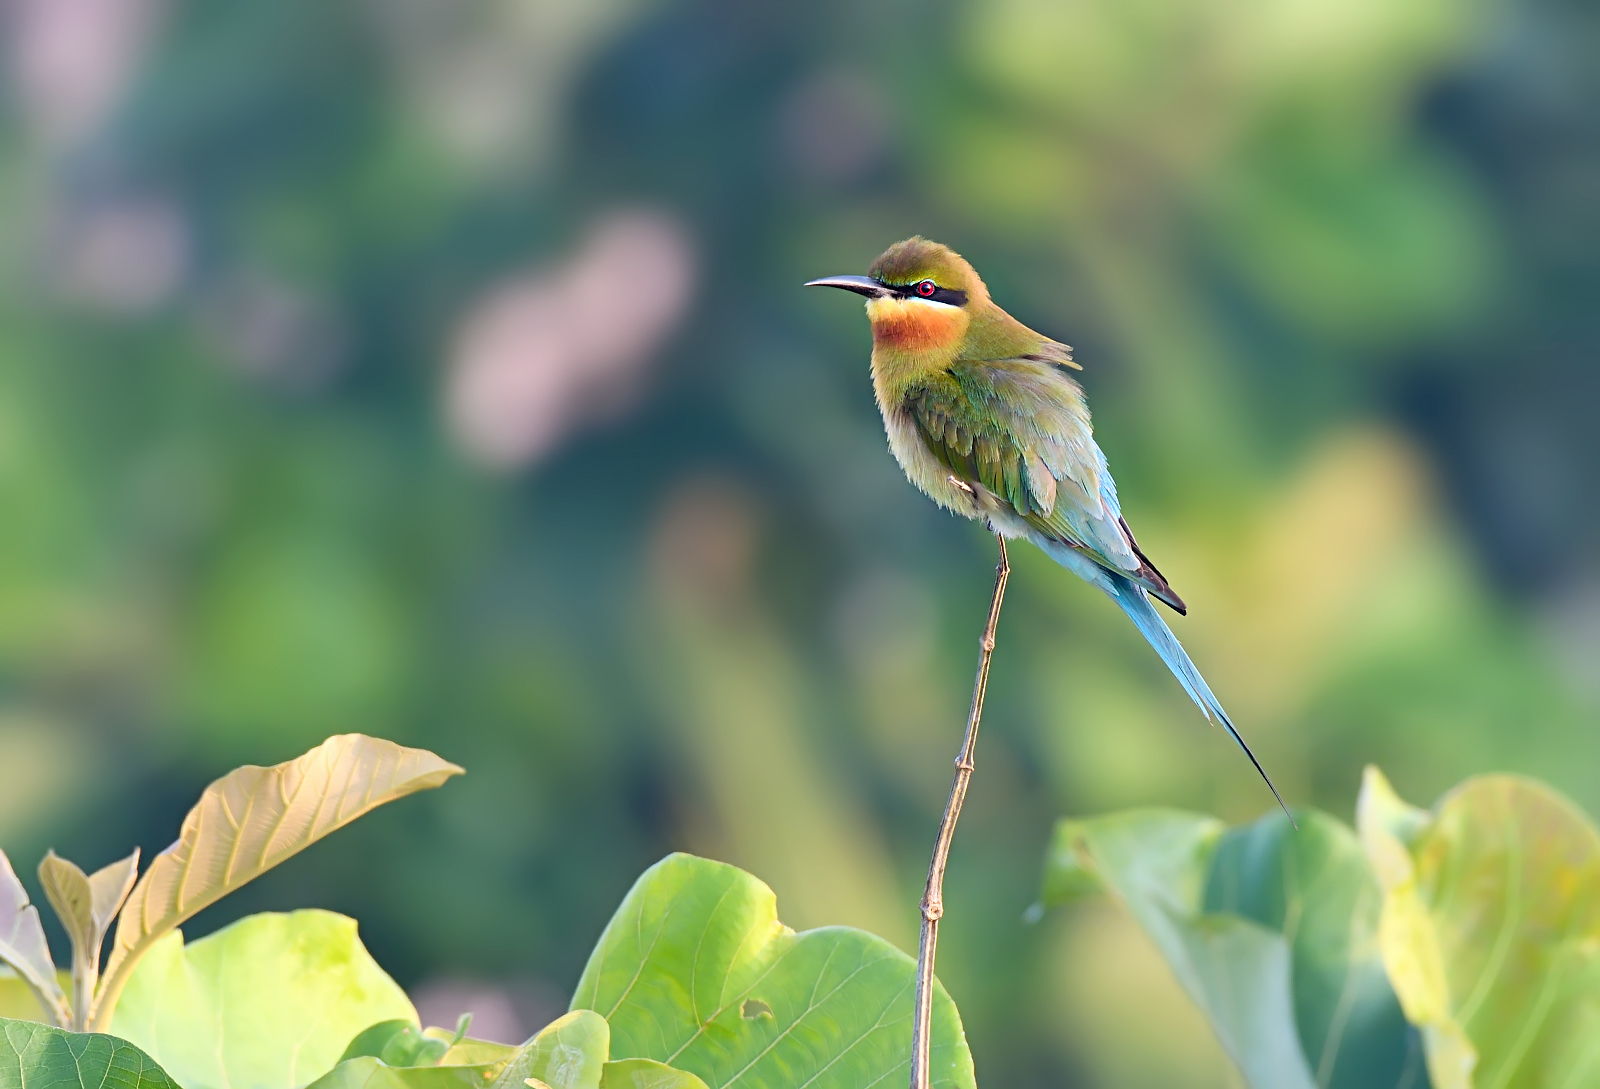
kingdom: Animalia
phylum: Chordata
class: Aves
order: Coraciiformes
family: Meropidae
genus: Merops
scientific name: Merops philippinus
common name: Blue-tailed bee-eater
